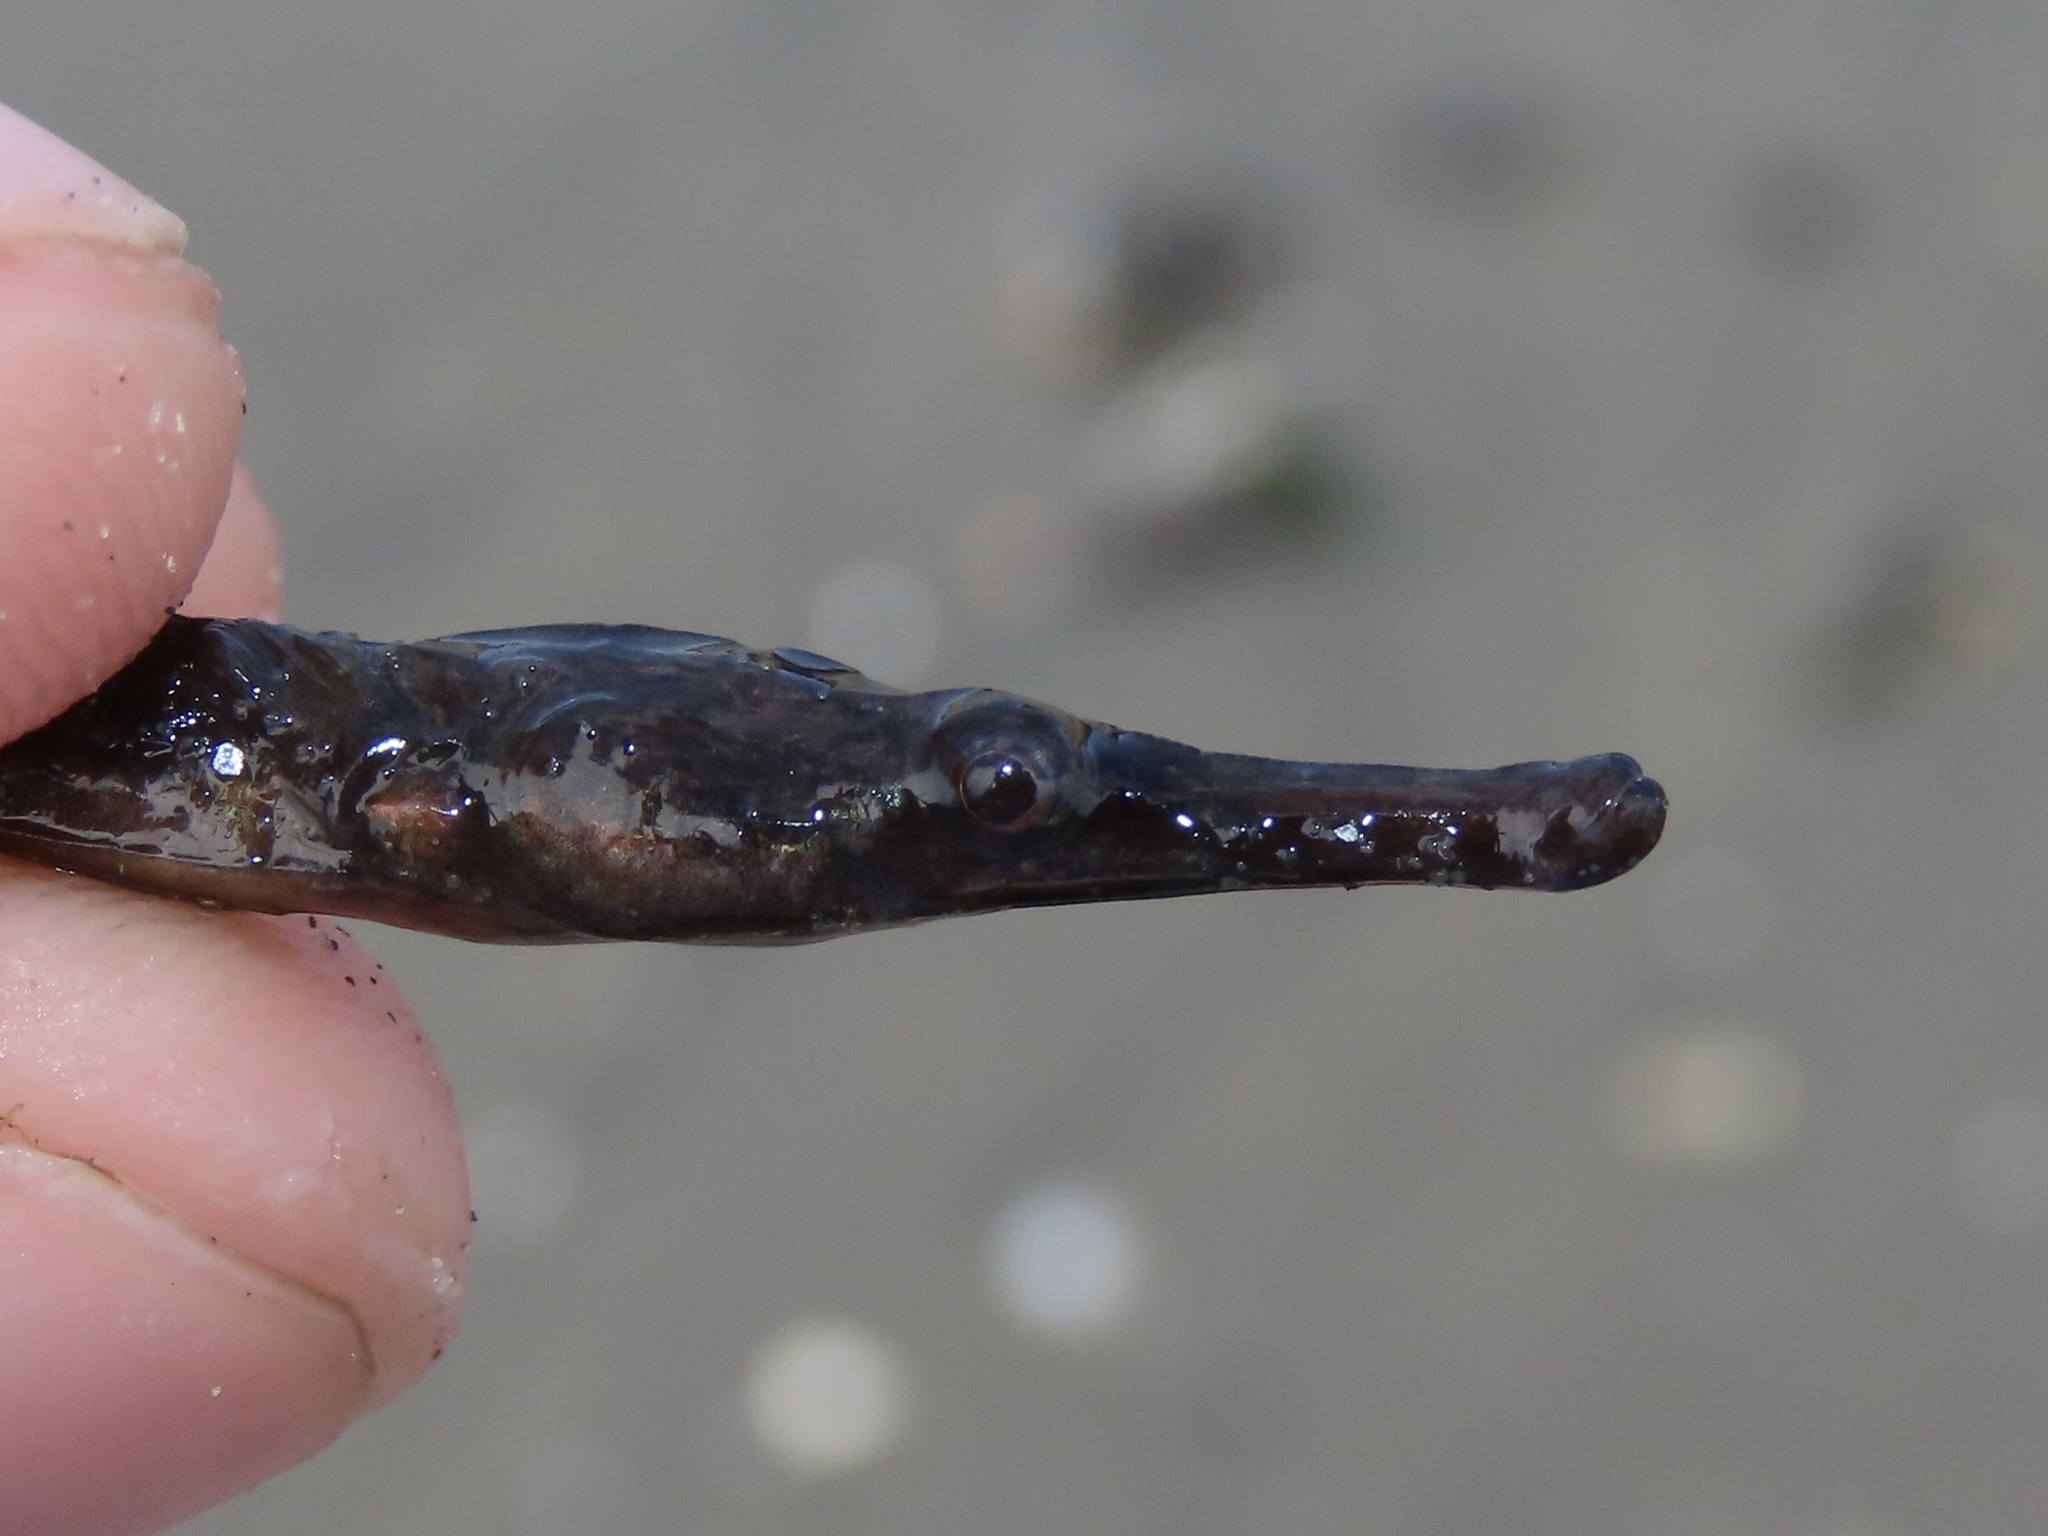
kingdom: Animalia
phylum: Chordata
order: Syngnathiformes
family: Syngnathidae
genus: Syngnathus
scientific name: Syngnathus fuscus
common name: Northern pipefish
